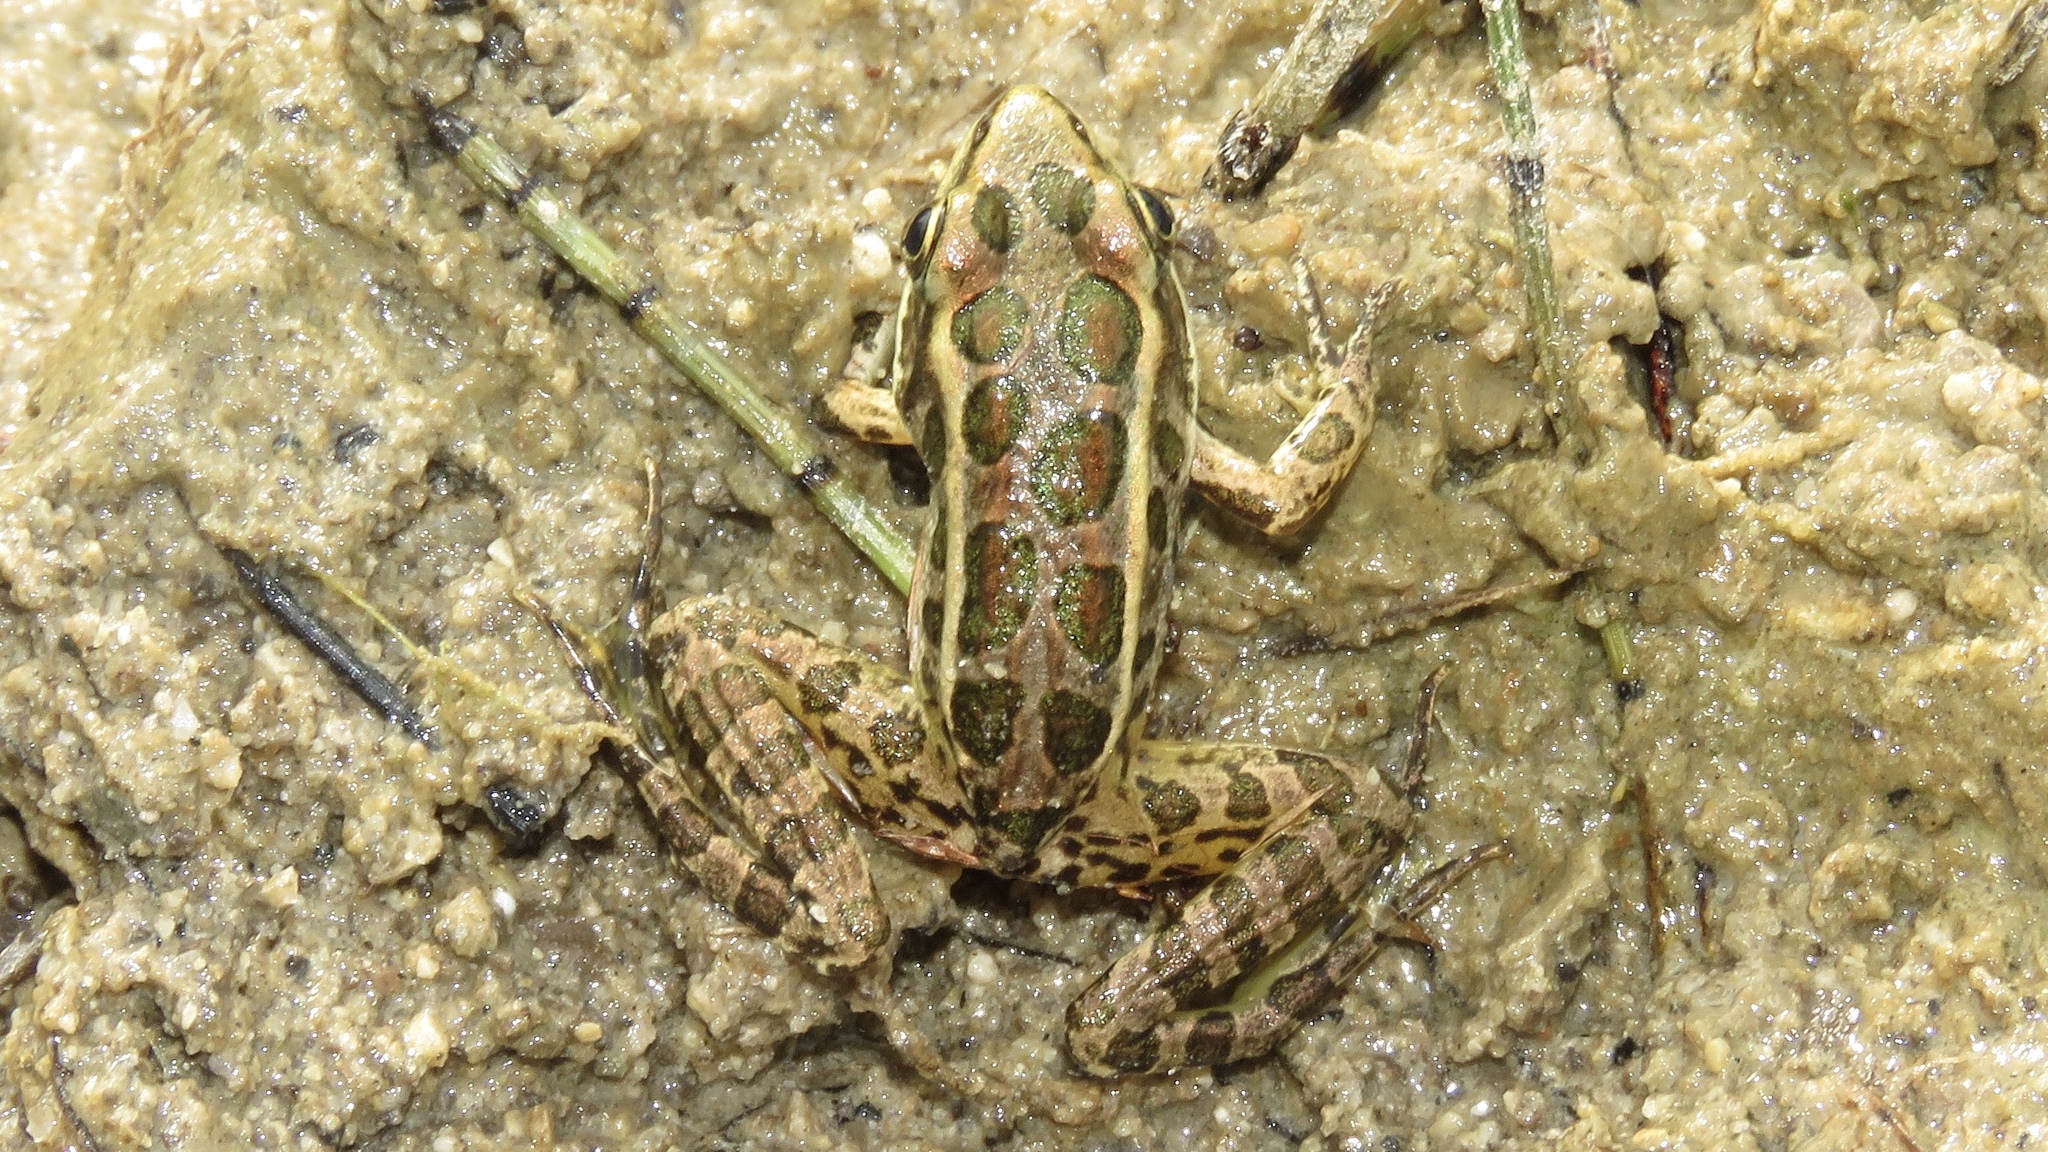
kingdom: Animalia
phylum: Chordata
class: Amphibia
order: Anura
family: Ranidae
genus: Lithobates
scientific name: Lithobates palustris
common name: Pickerel frog
